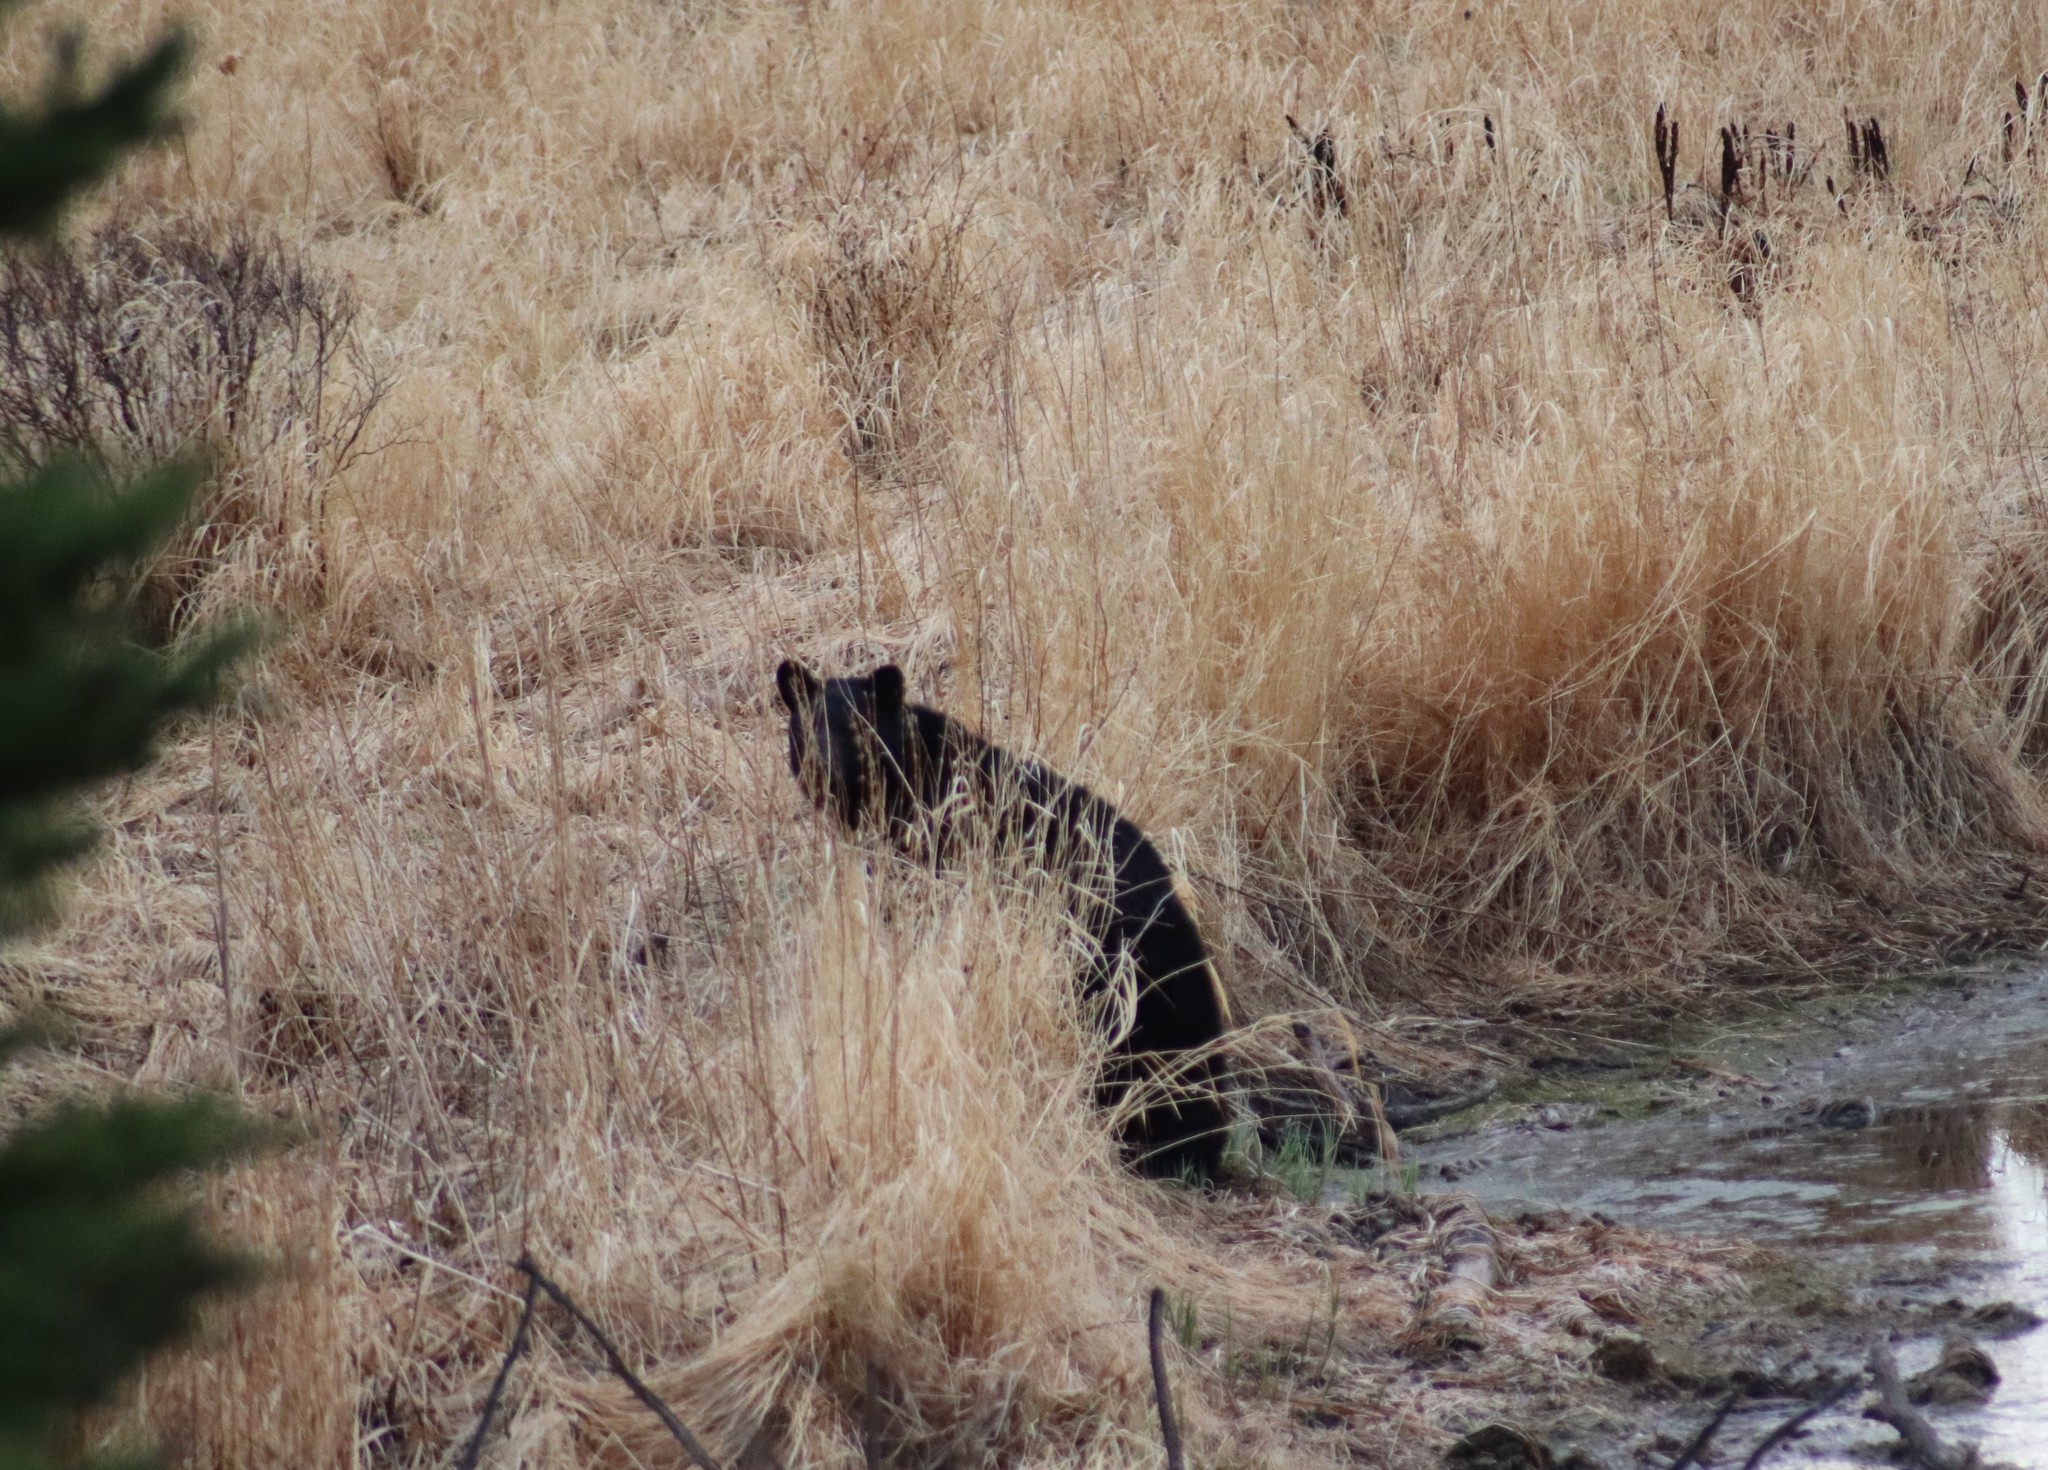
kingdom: Animalia
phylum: Chordata
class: Mammalia
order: Carnivora
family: Ursidae
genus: Ursus
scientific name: Ursus americanus
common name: American black bear
